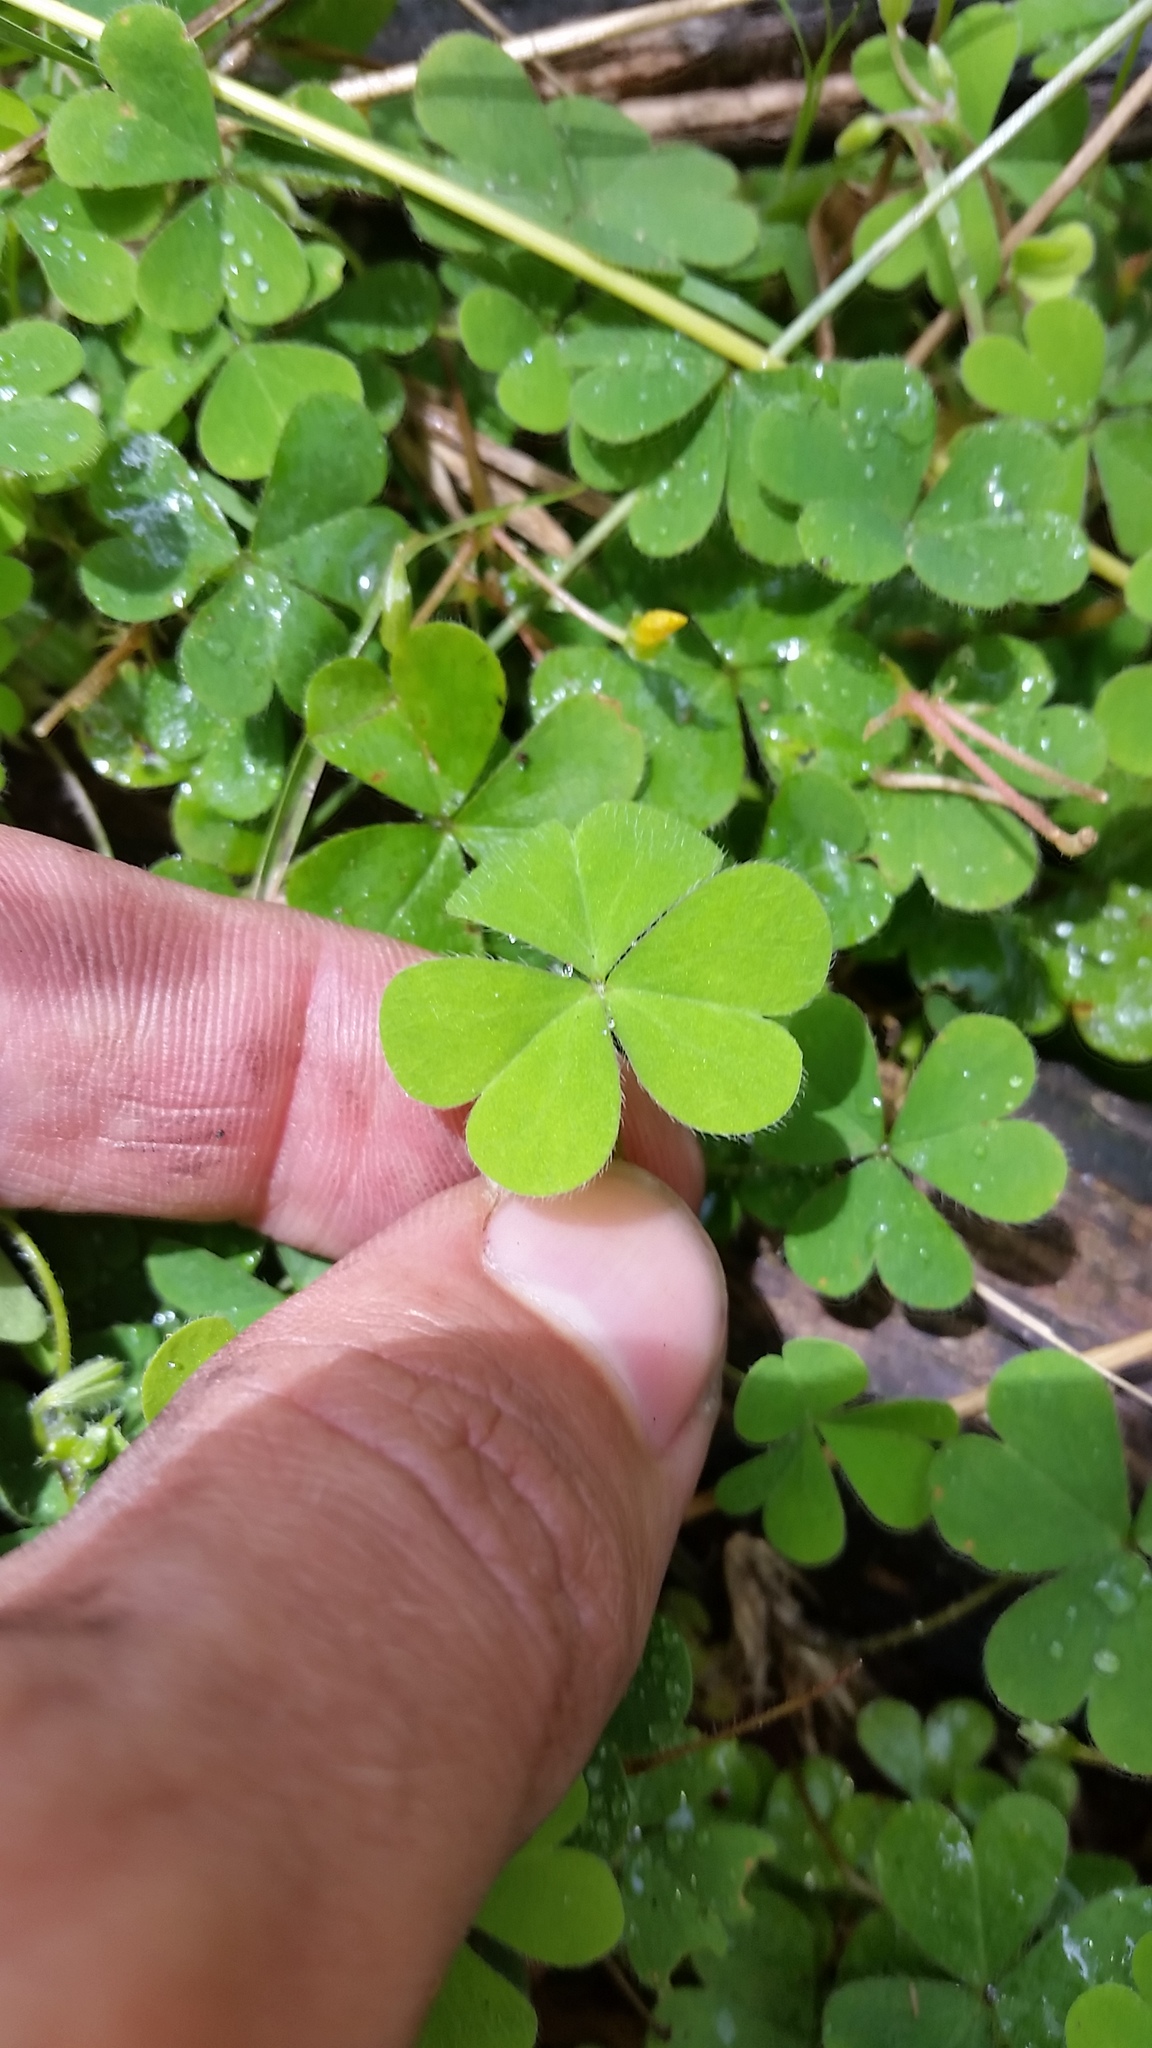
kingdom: Plantae
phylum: Tracheophyta
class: Magnoliopsida
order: Oxalidales
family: Oxalidaceae
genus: Oxalis
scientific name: Oxalis corniculata
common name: Procumbent yellow-sorrel
